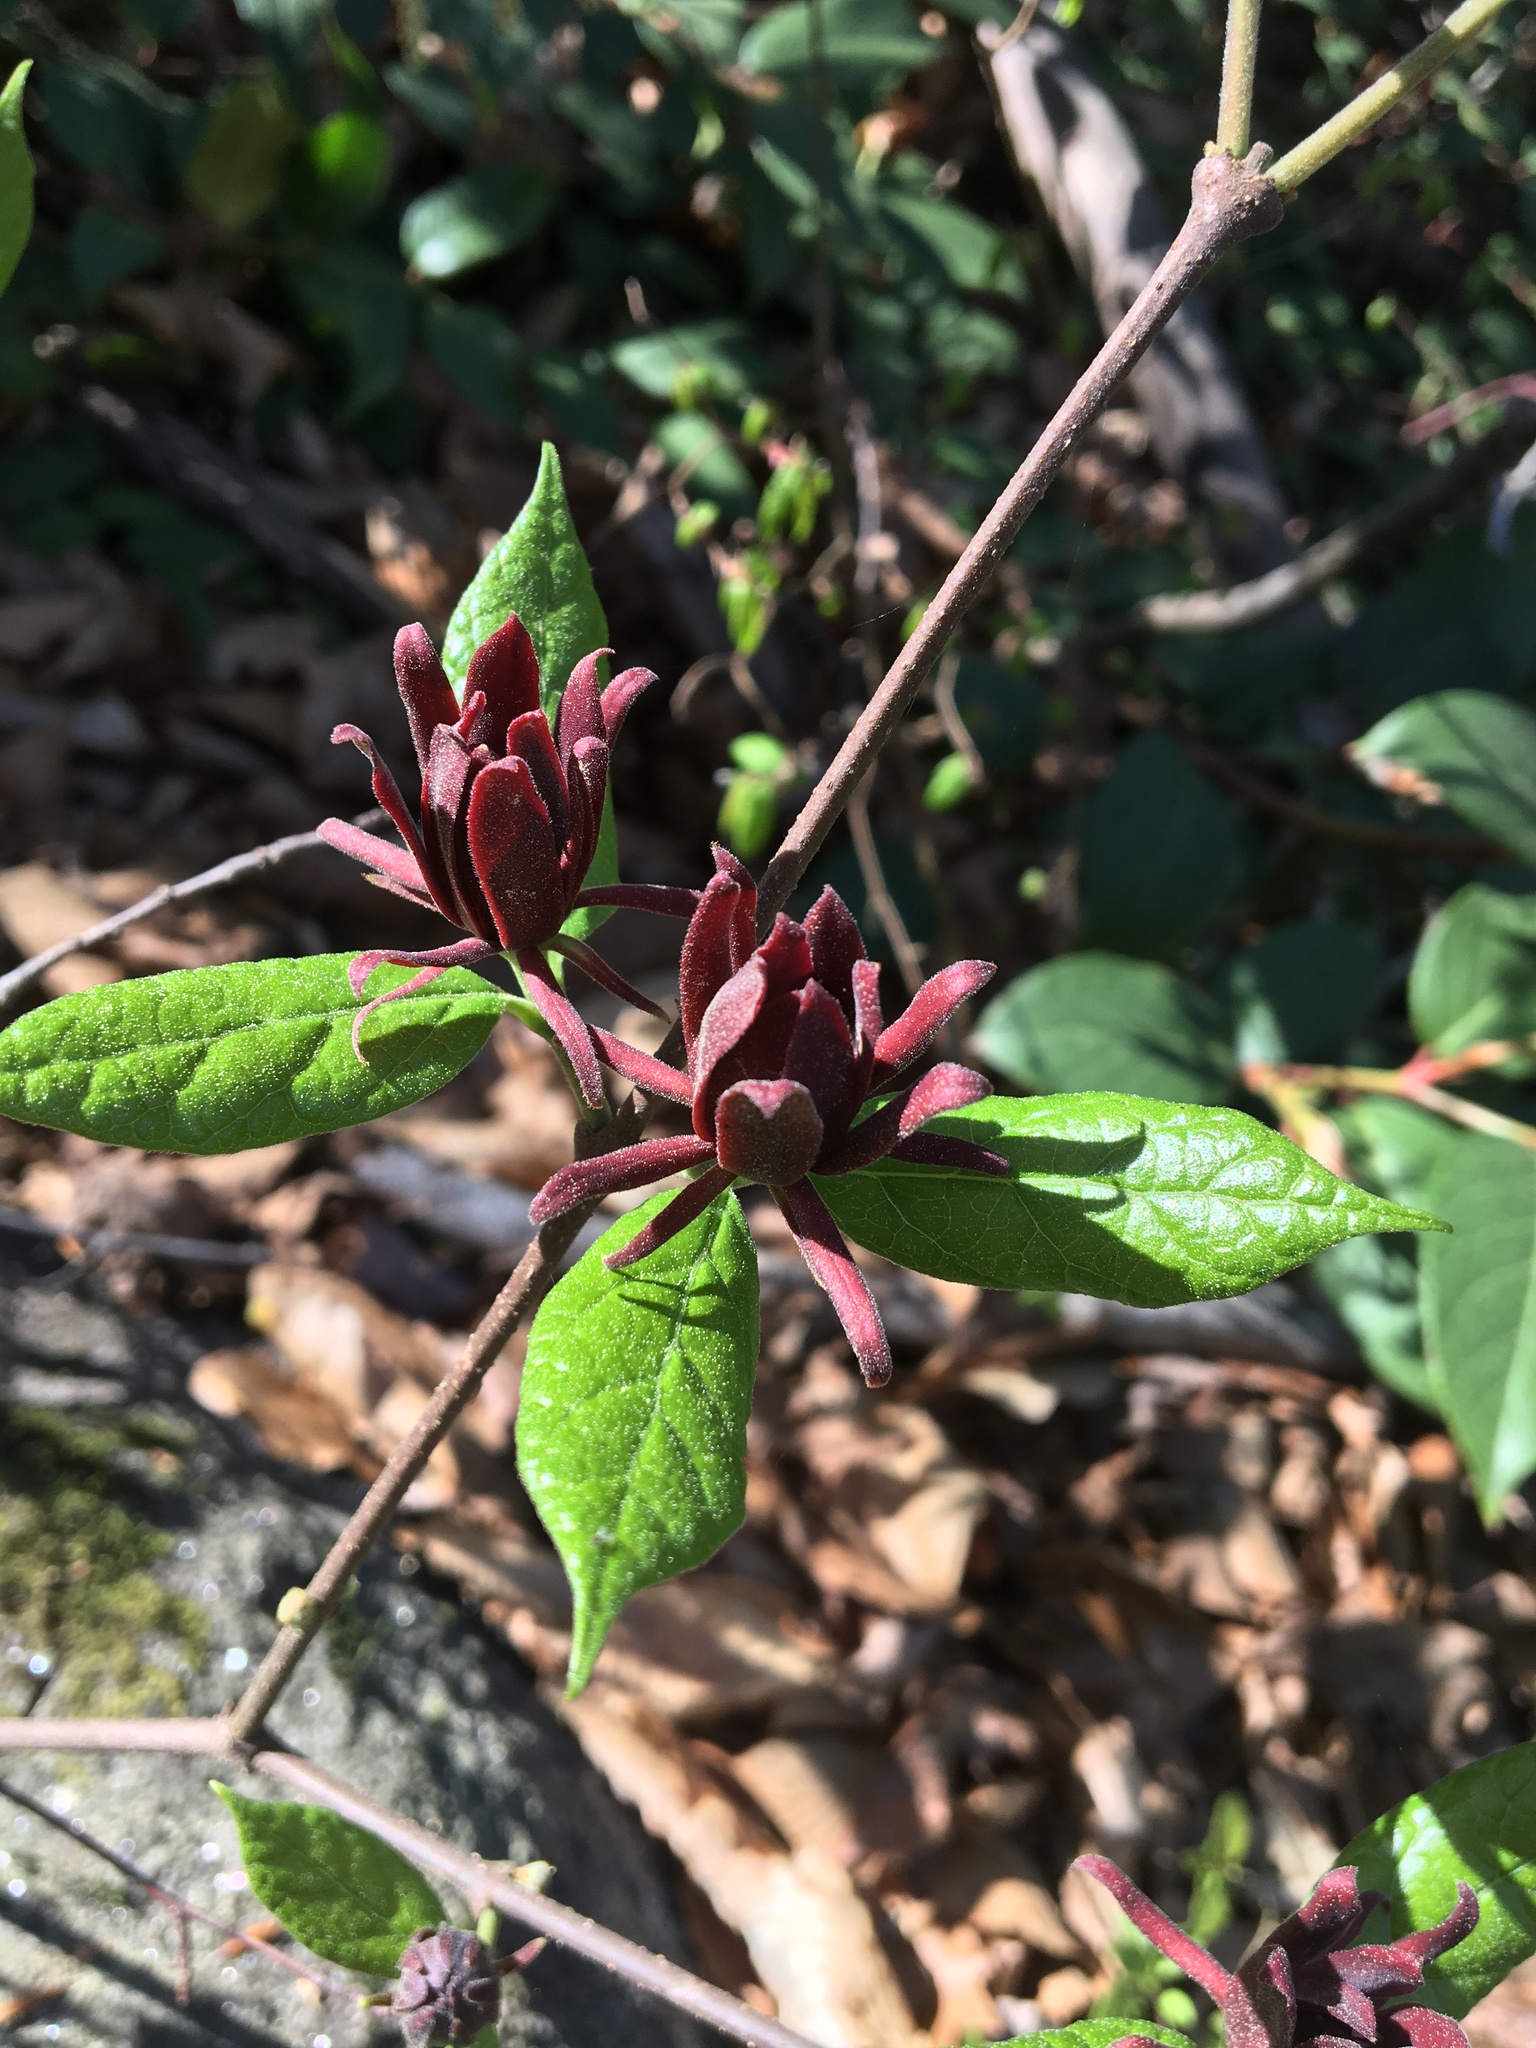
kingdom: Plantae
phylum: Tracheophyta
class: Magnoliopsida
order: Laurales
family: Calycanthaceae
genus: Calycanthus
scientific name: Calycanthus floridus
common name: Carolina-allspice
